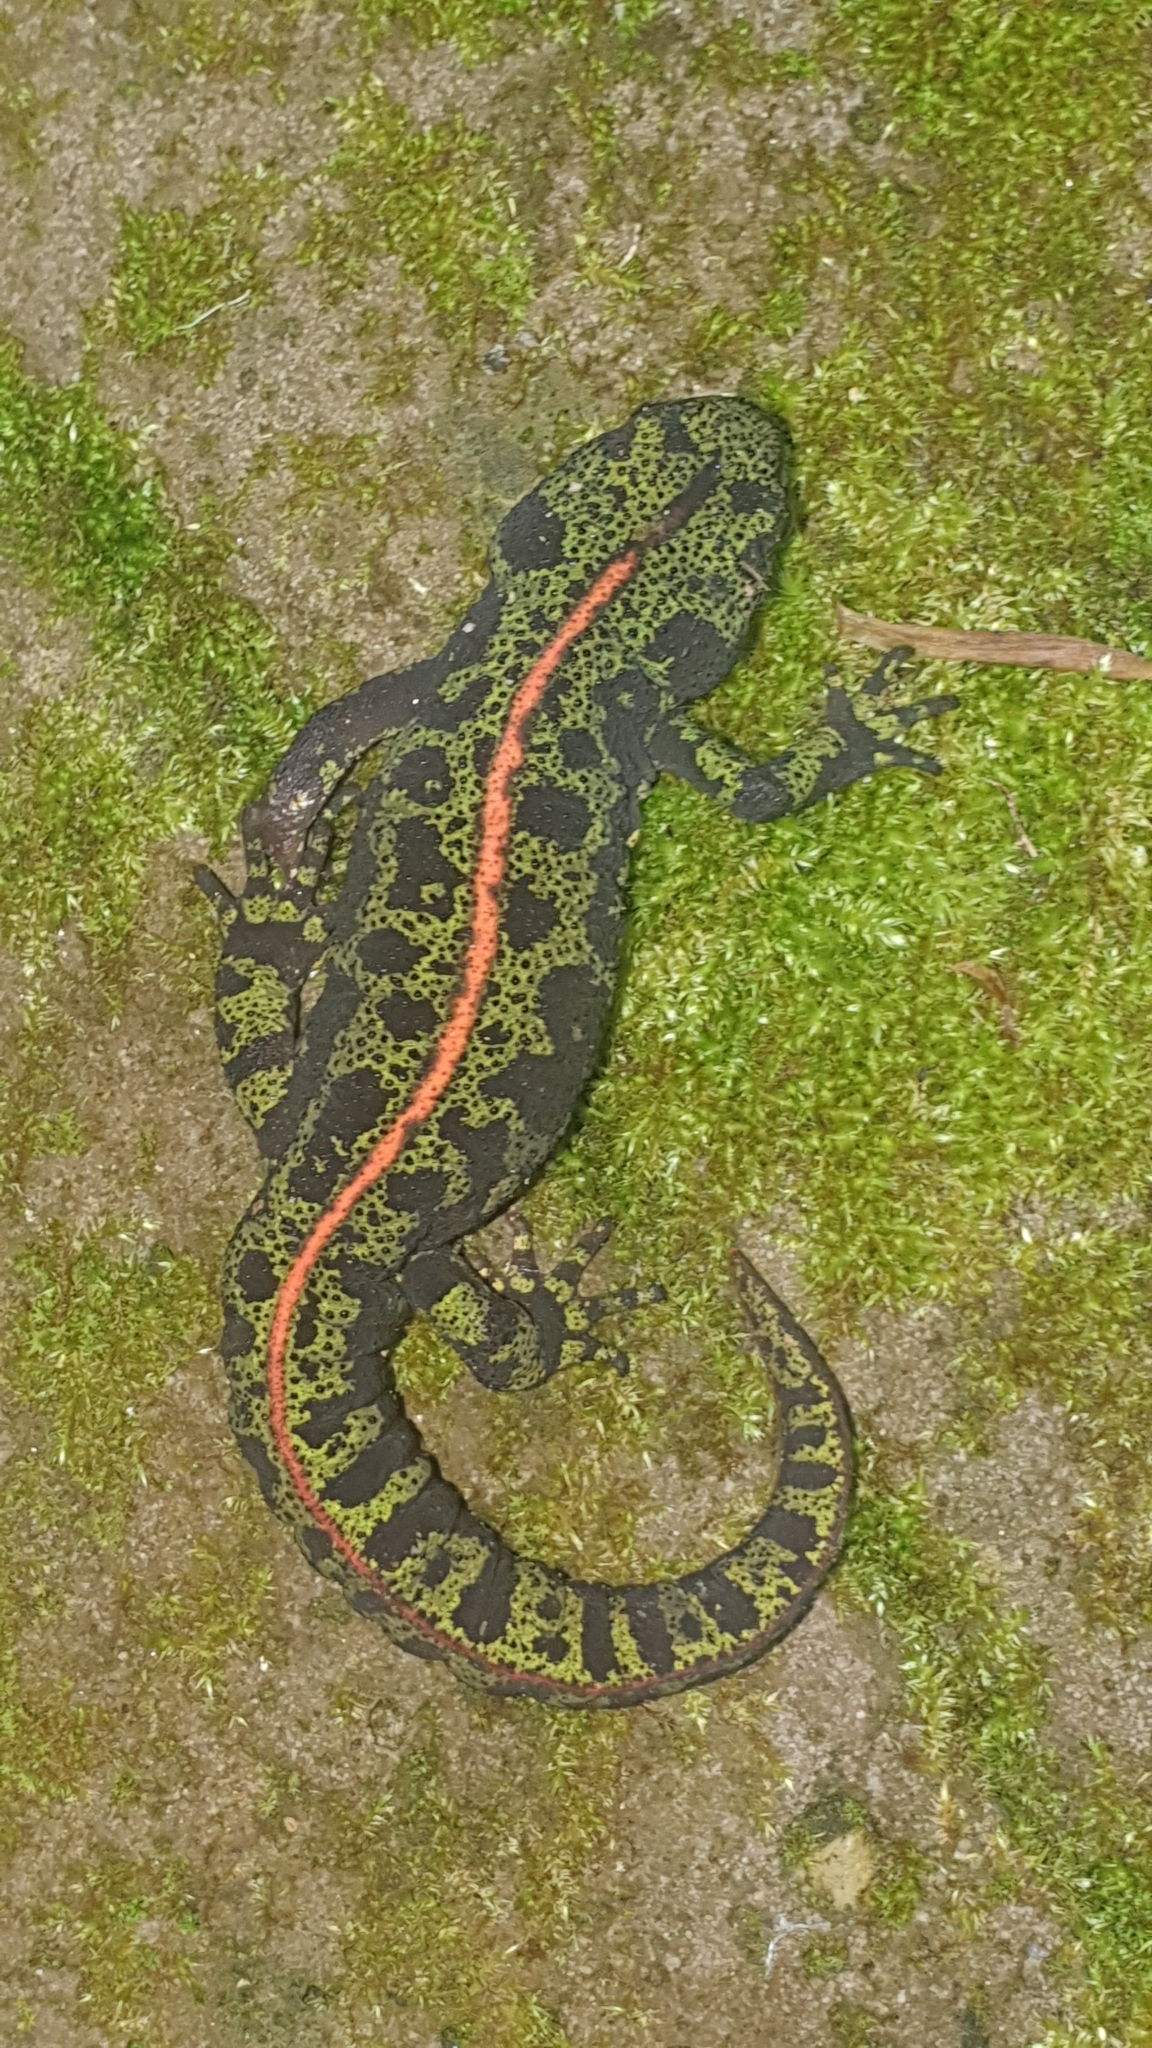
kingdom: Animalia
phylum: Chordata
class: Amphibia
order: Caudata
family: Salamandridae
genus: Triturus
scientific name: Triturus marmoratus
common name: Marbled newt
